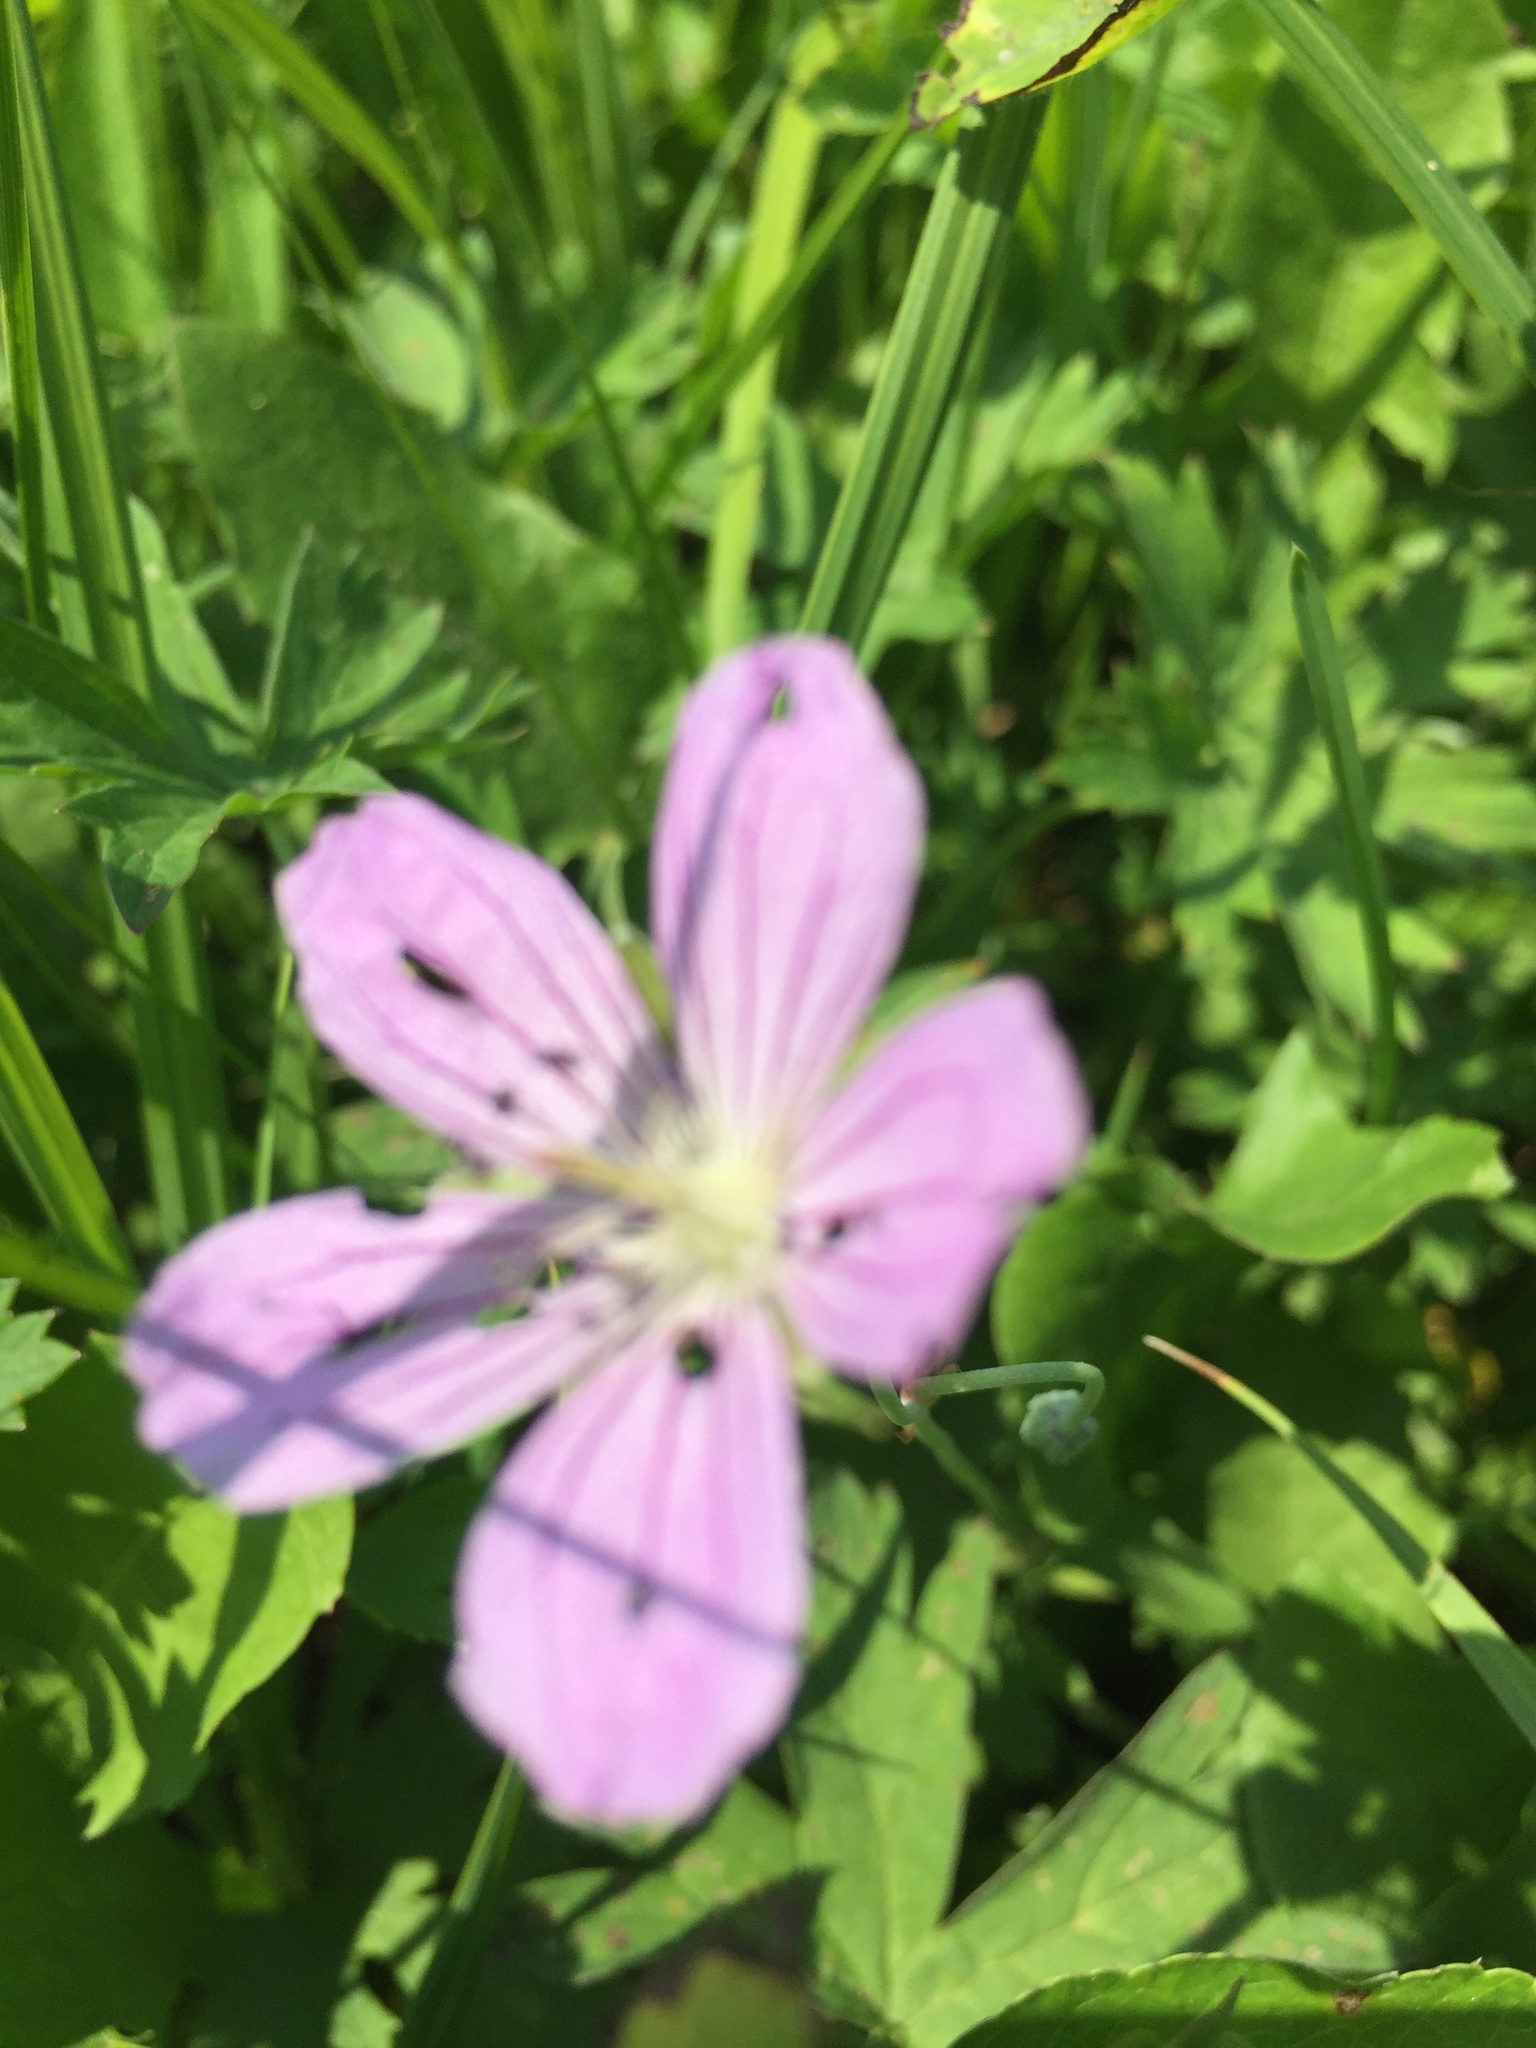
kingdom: Plantae
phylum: Tracheophyta
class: Magnoliopsida
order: Geraniales
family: Geraniaceae
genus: Geranium
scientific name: Geranium collinum
